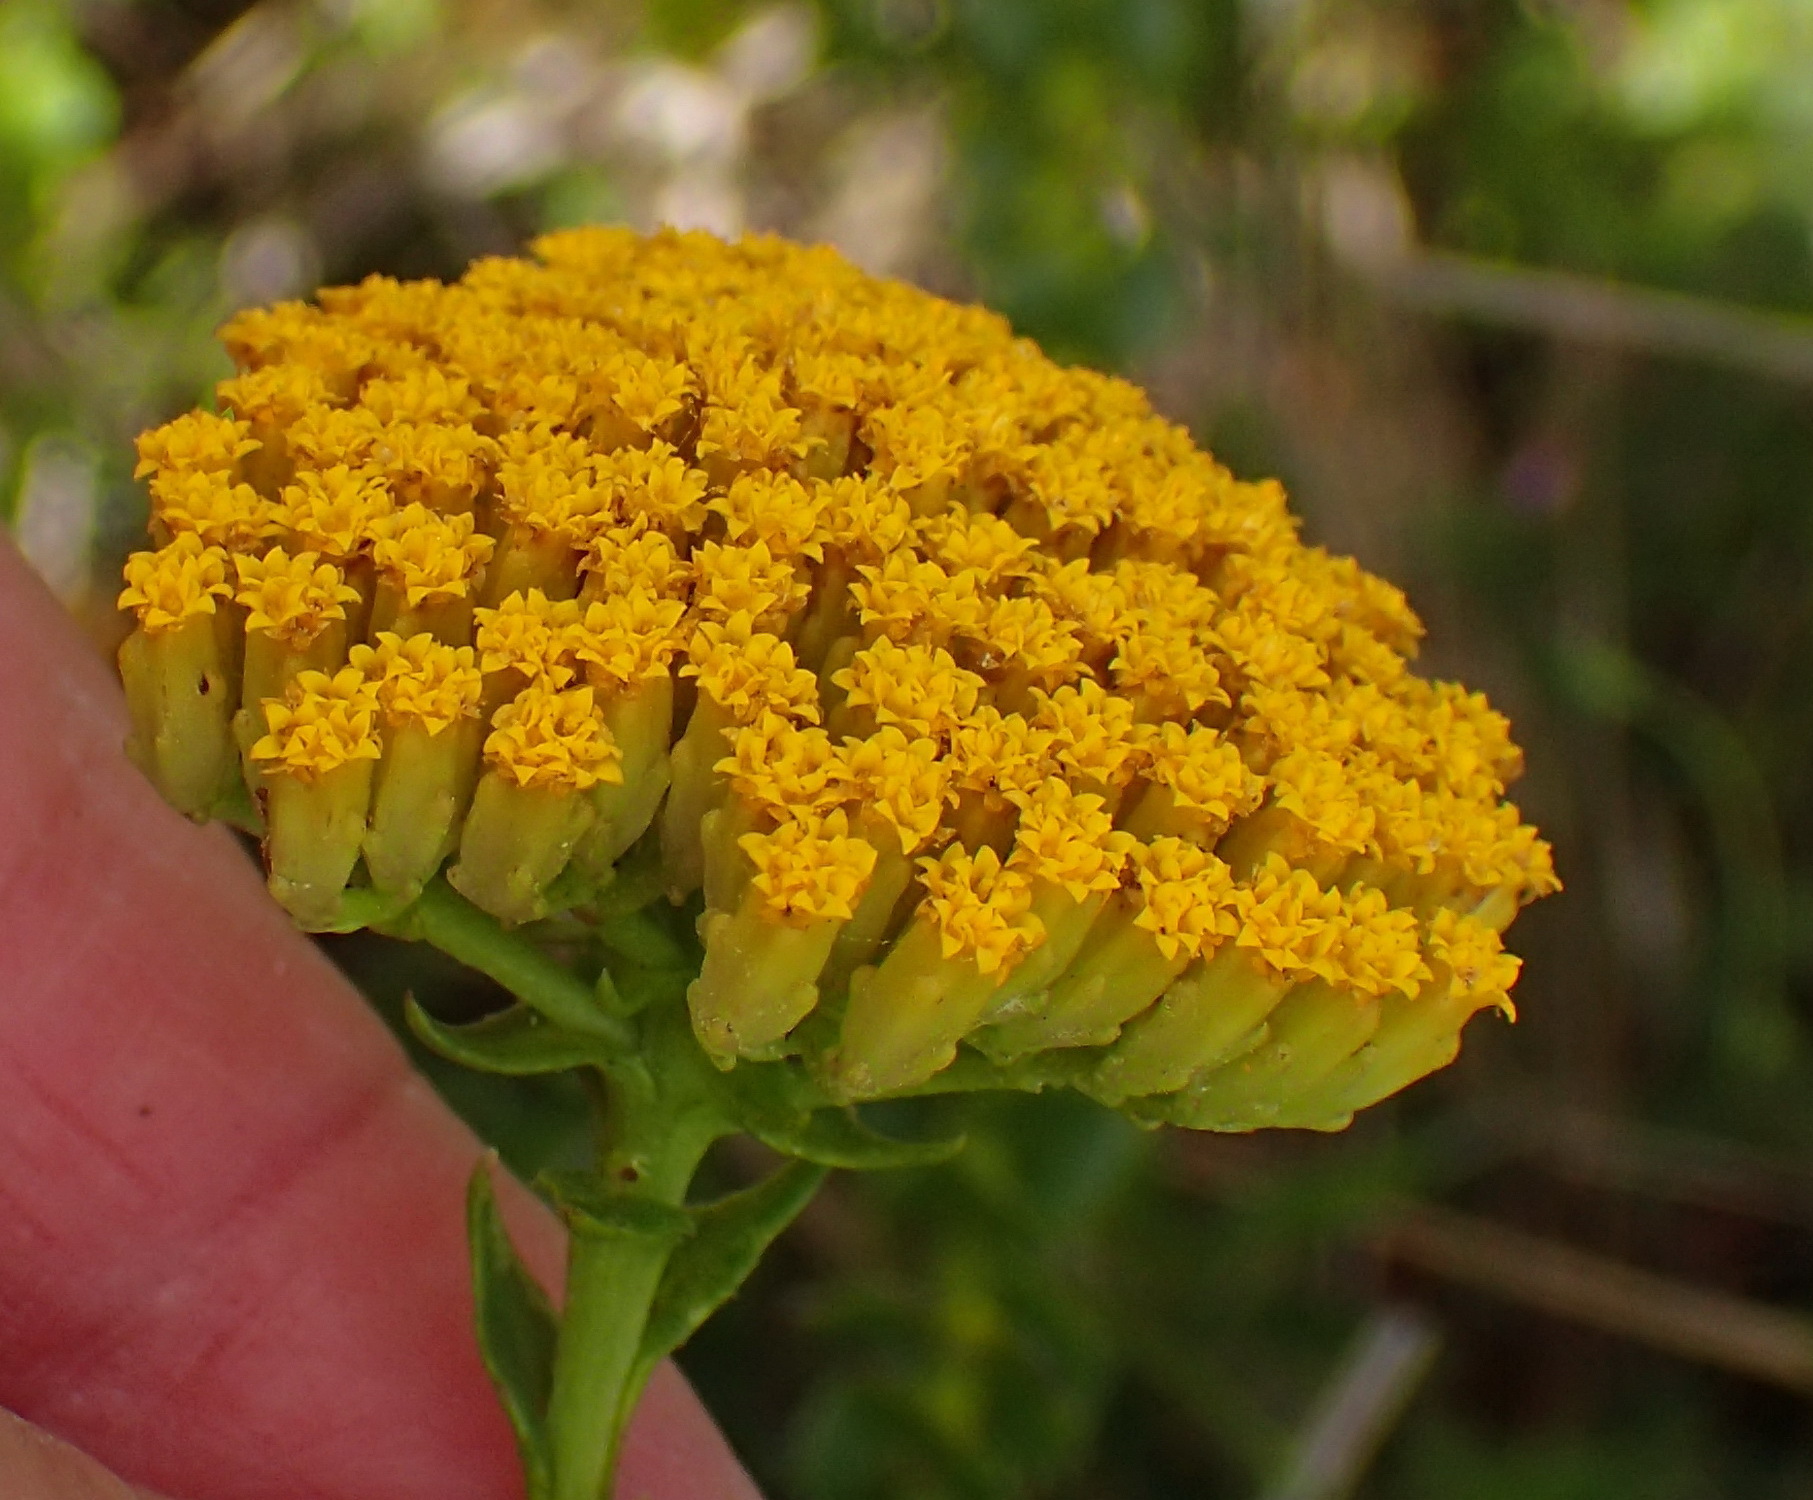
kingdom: Plantae
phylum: Tracheophyta
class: Magnoliopsida
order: Asterales
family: Asteraceae
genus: Athanasia
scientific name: Athanasia dentata
